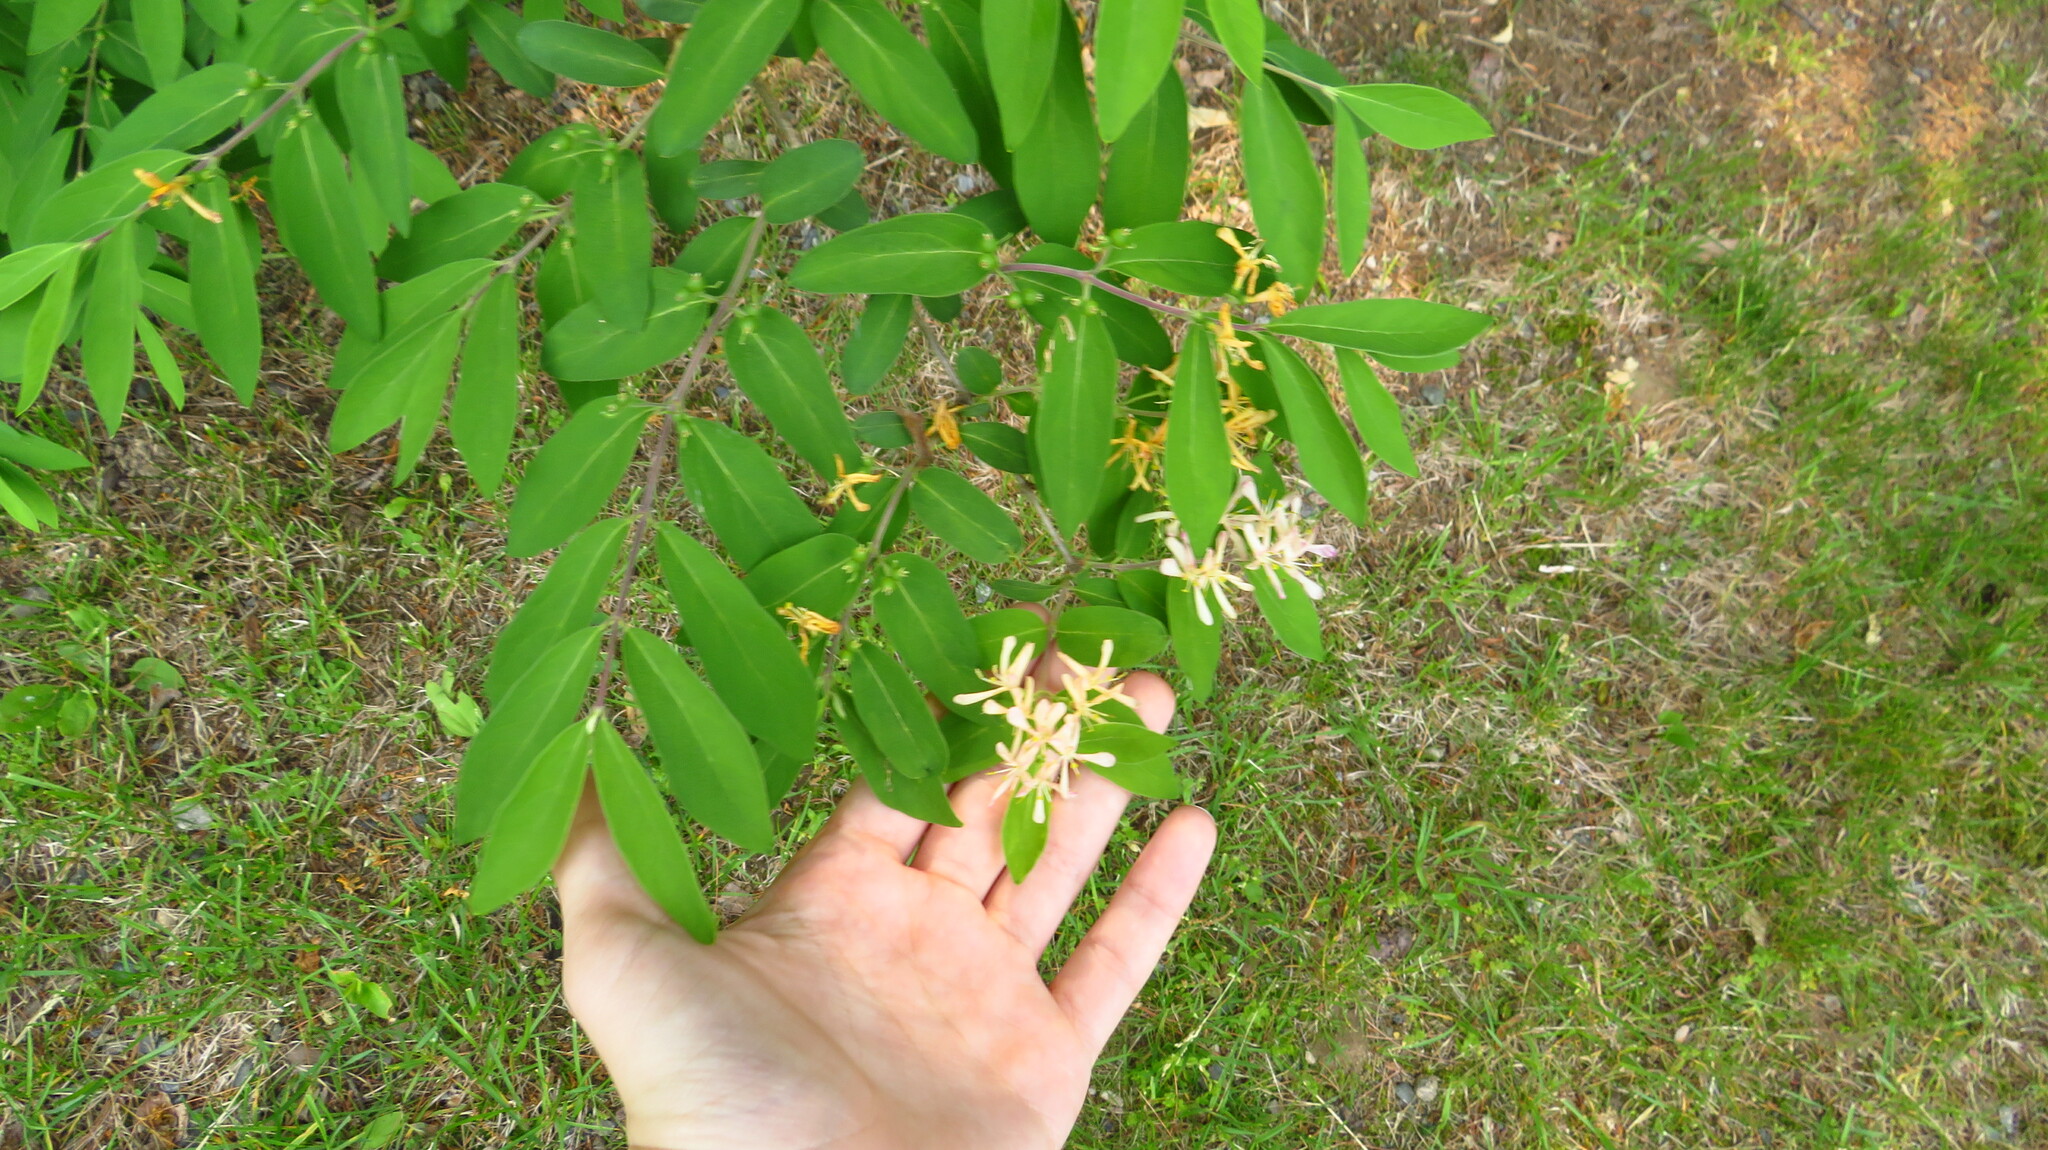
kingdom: Plantae
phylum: Tracheophyta
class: Magnoliopsida
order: Dipsacales
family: Caprifoliaceae
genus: Lonicera
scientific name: Lonicera
